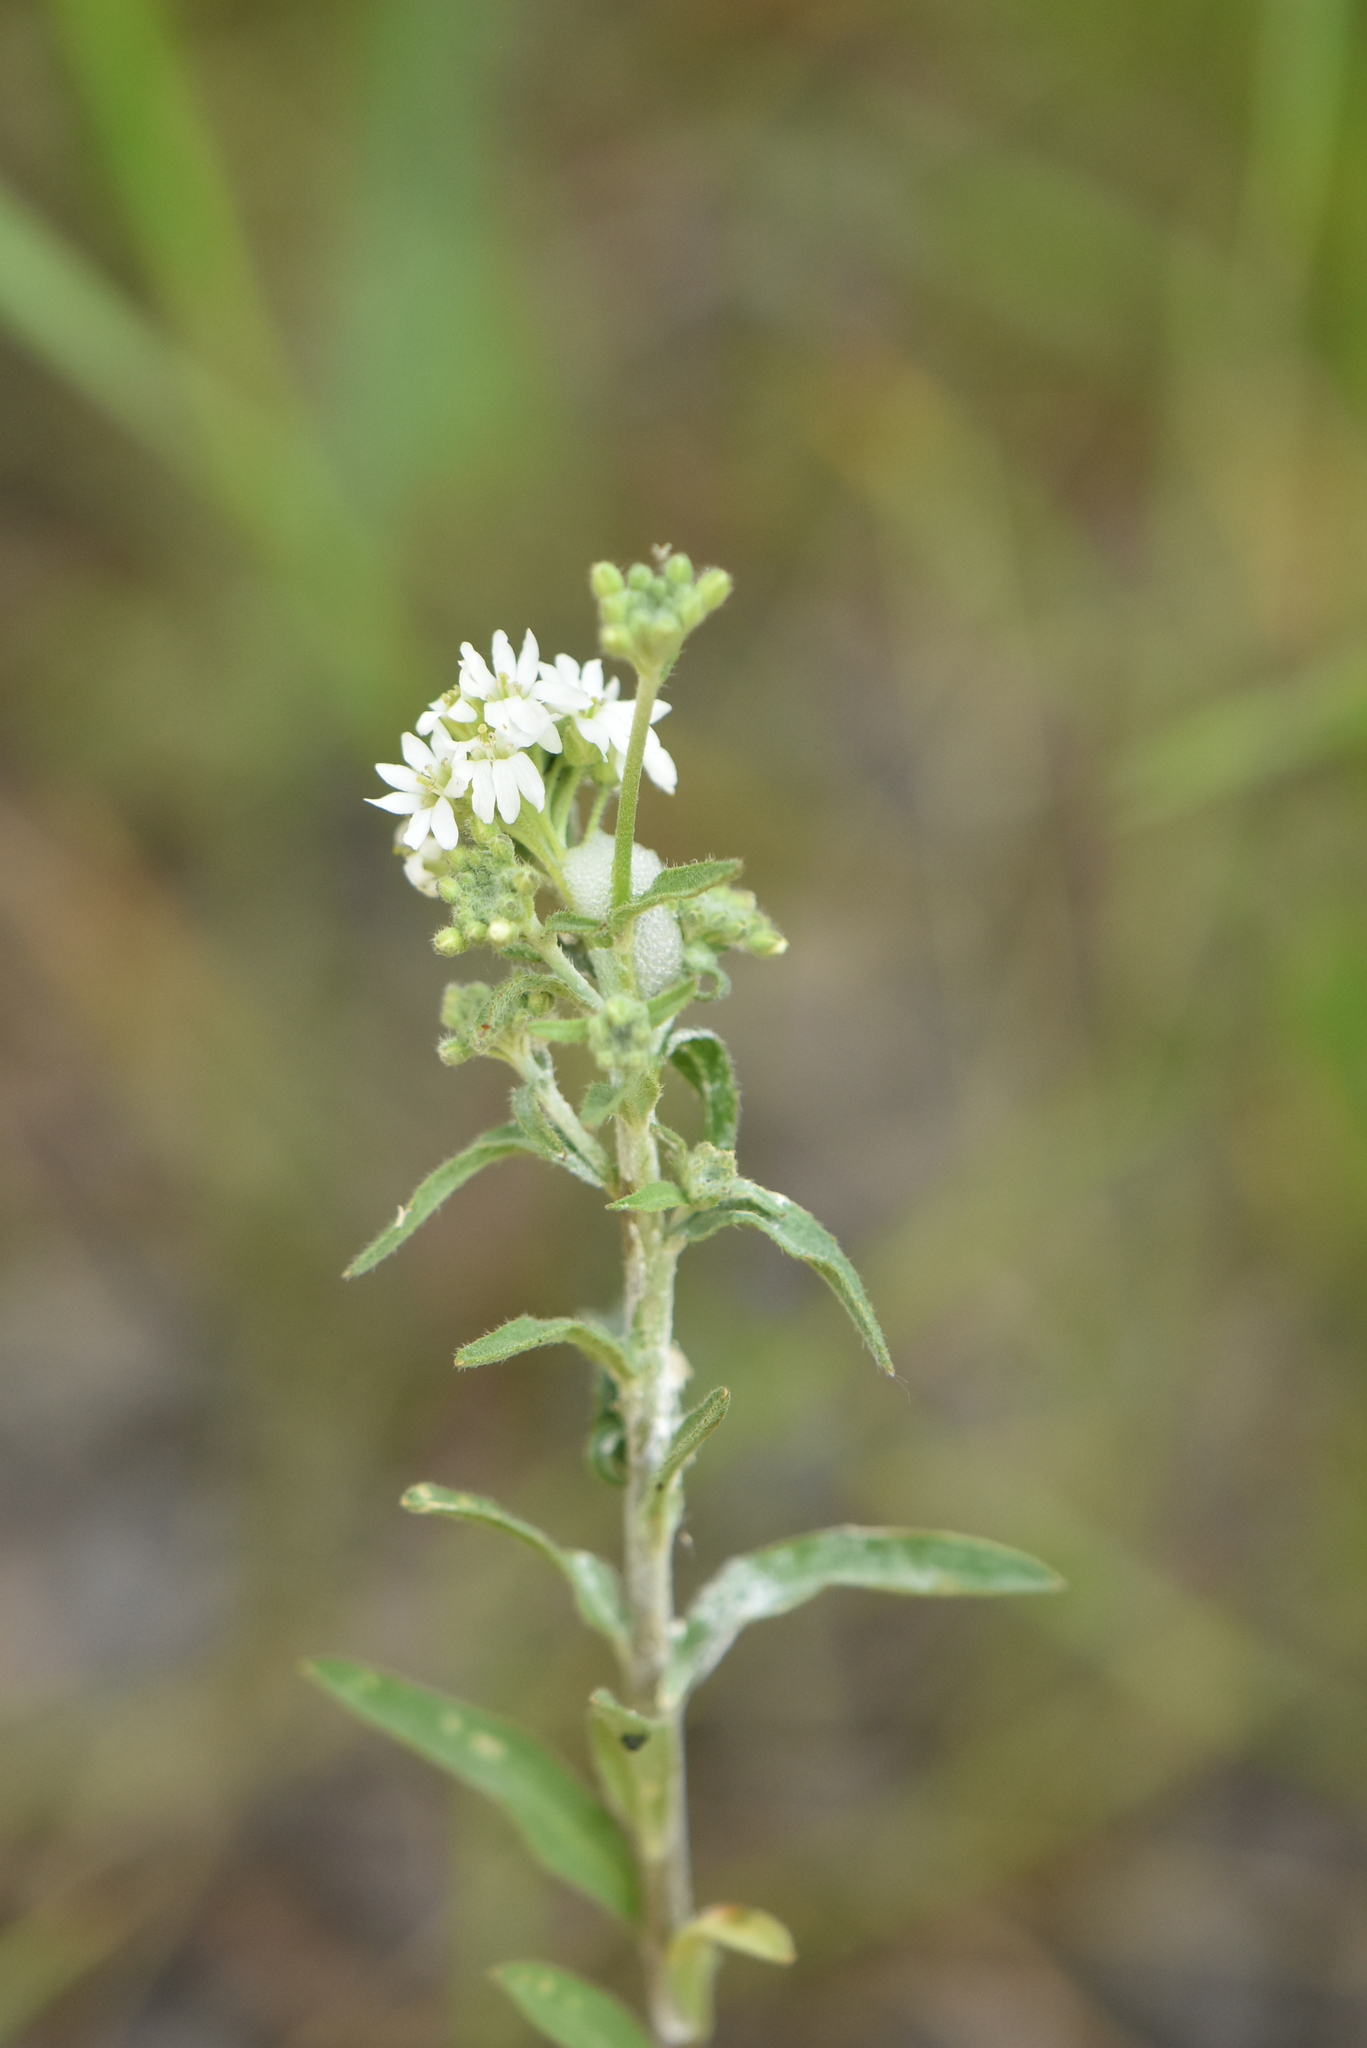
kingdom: Plantae
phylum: Tracheophyta
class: Magnoliopsida
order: Brassicales
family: Brassicaceae
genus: Berteroa
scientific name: Berteroa incana
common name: Hoary alison
